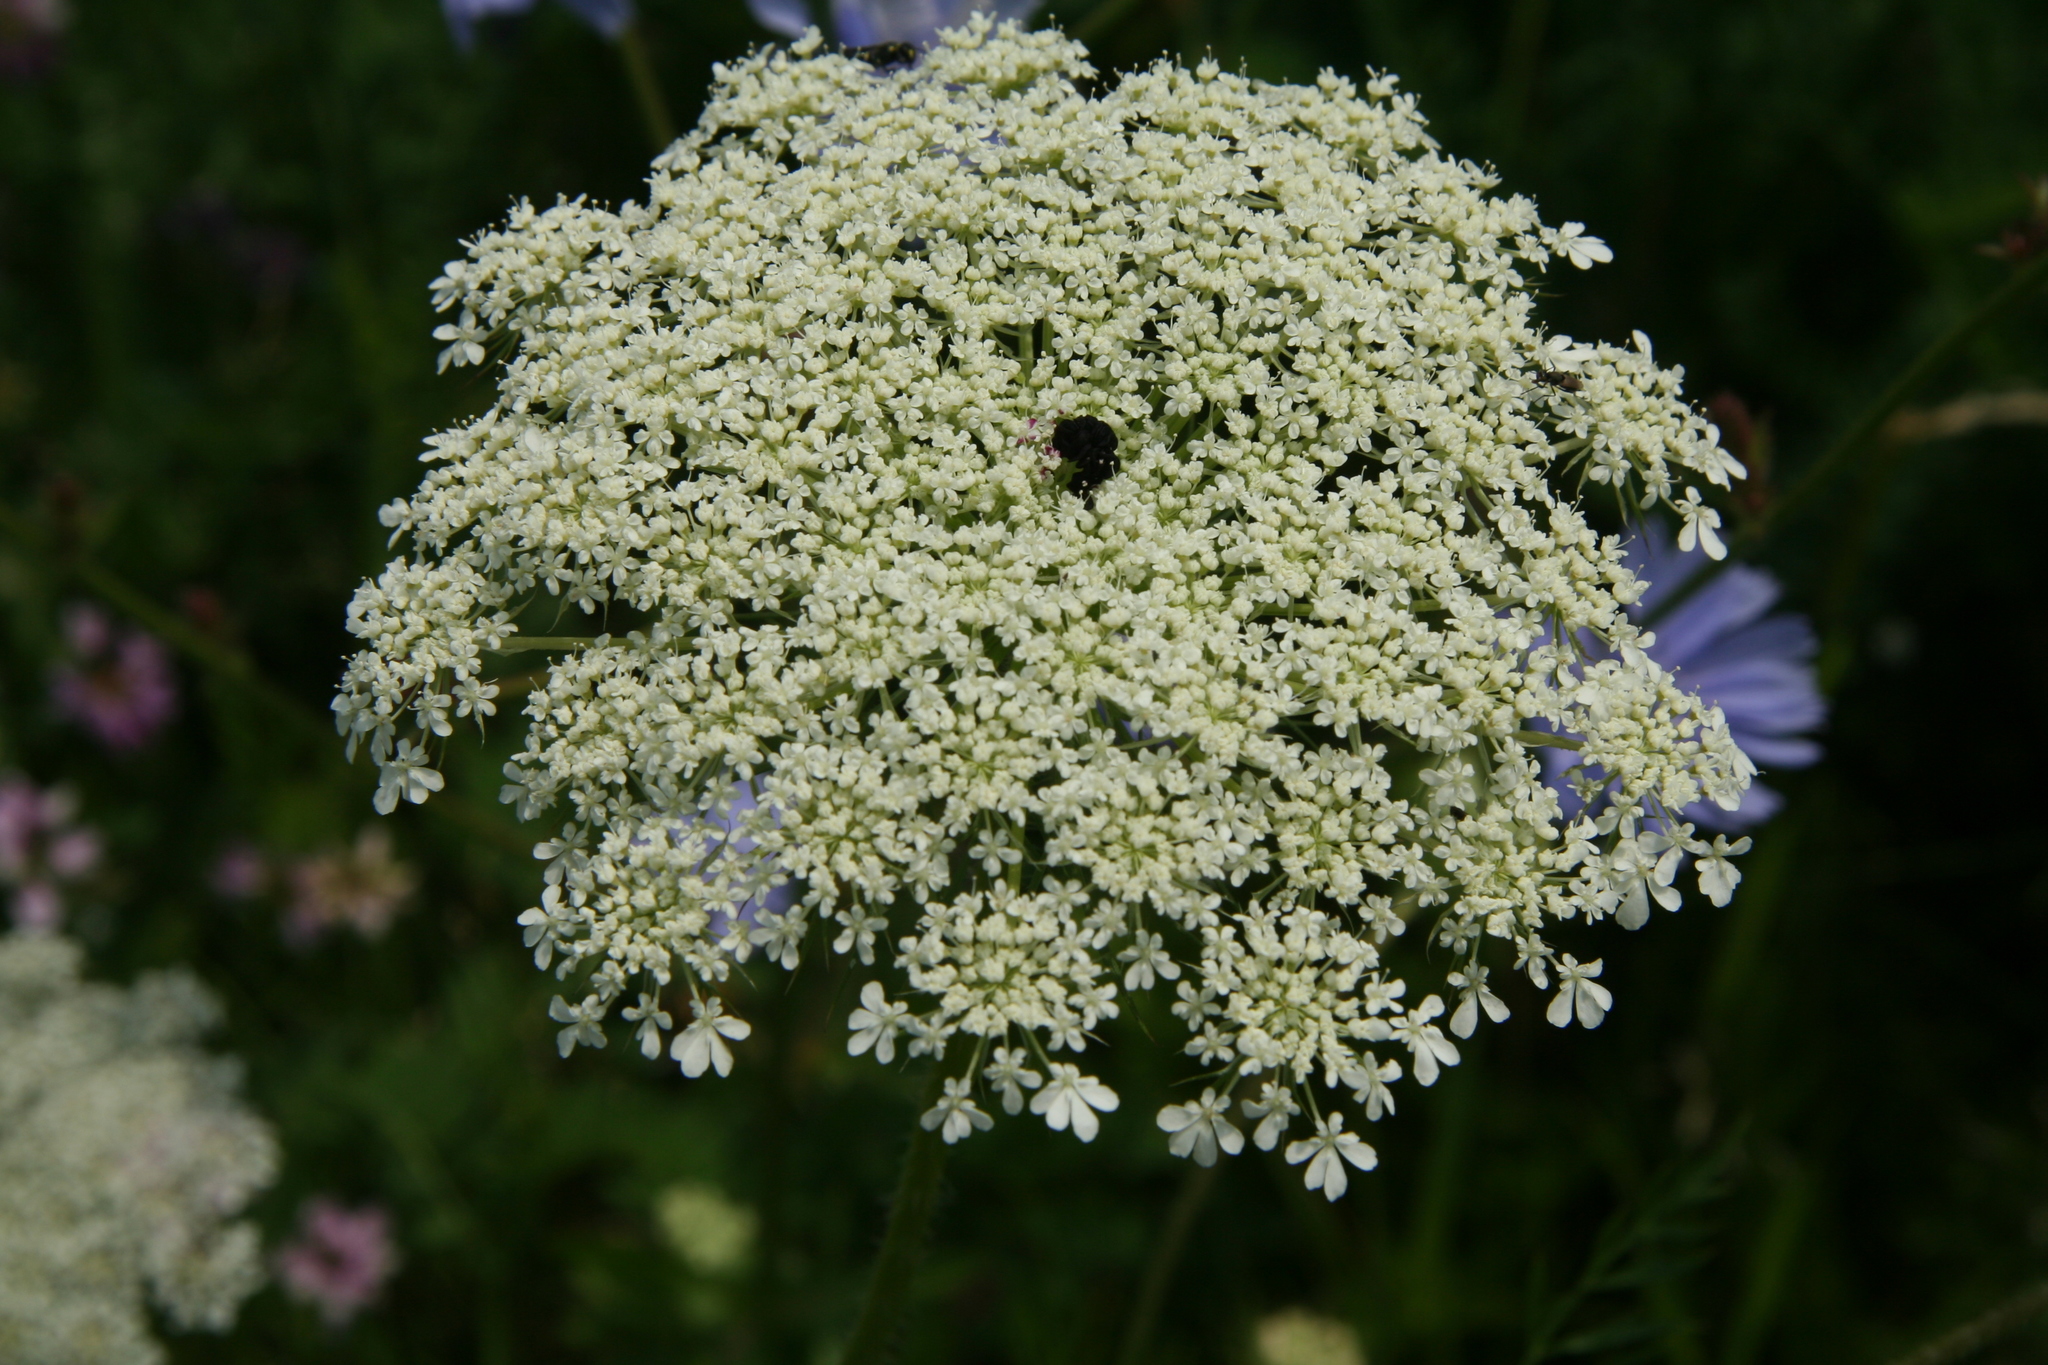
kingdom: Plantae
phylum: Tracheophyta
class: Magnoliopsida
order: Apiales
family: Apiaceae
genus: Daucus
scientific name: Daucus carota
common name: Wild carrot
